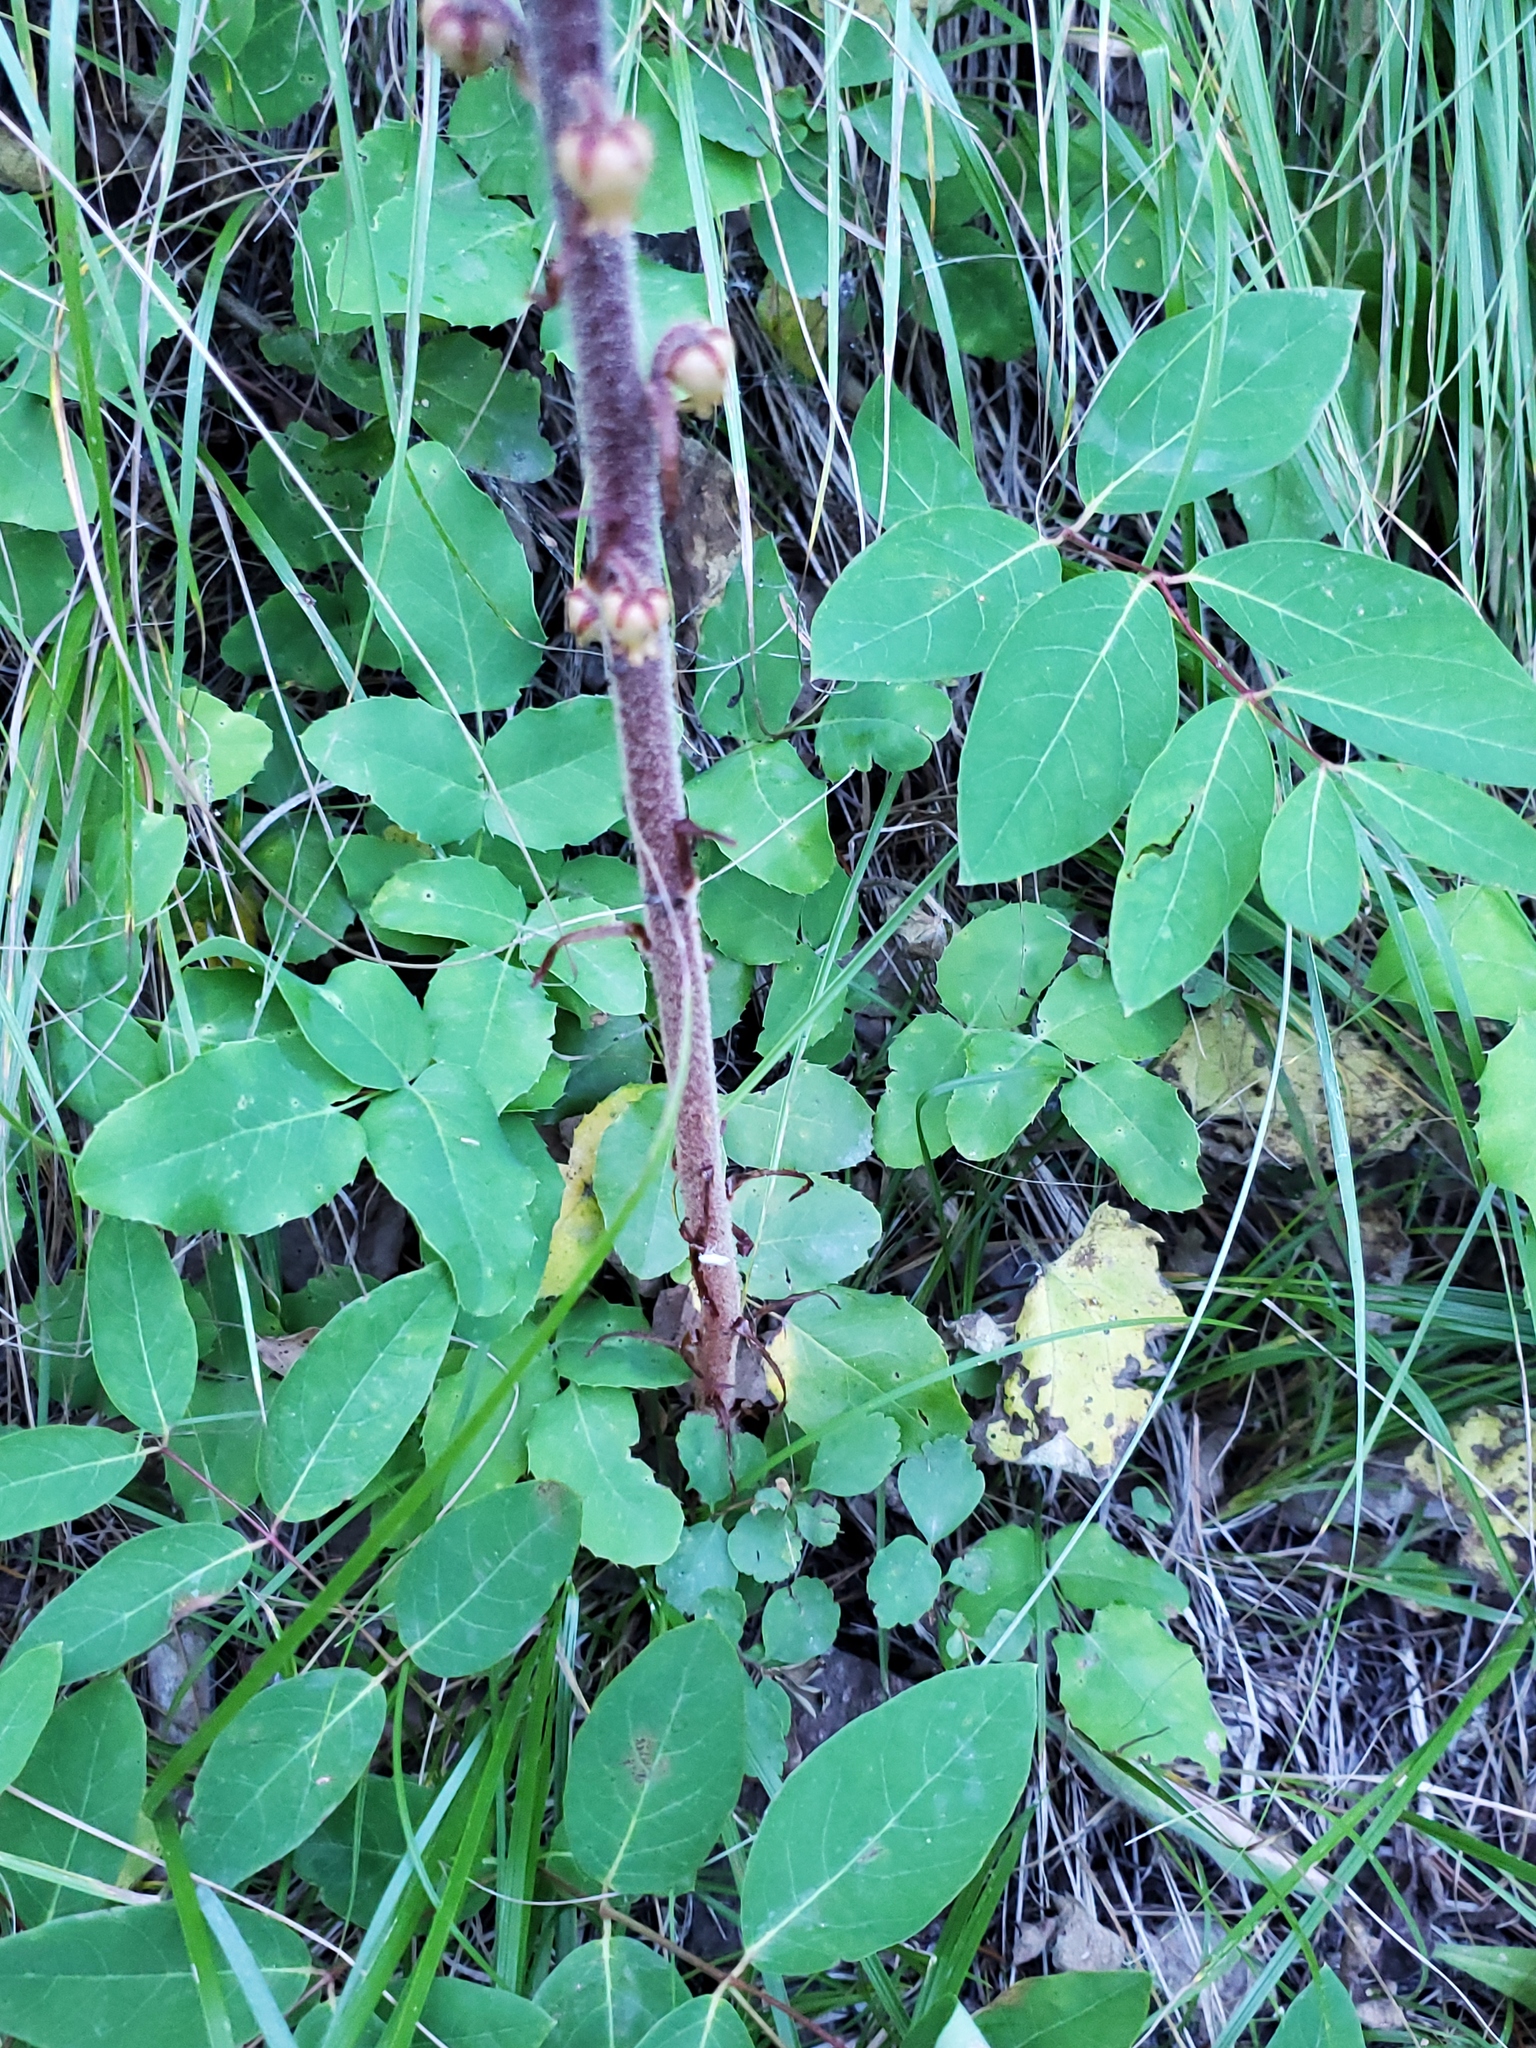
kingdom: Plantae
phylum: Tracheophyta
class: Magnoliopsida
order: Ericales
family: Ericaceae
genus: Pterospora
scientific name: Pterospora andromedea
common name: Giant bird's-nest
